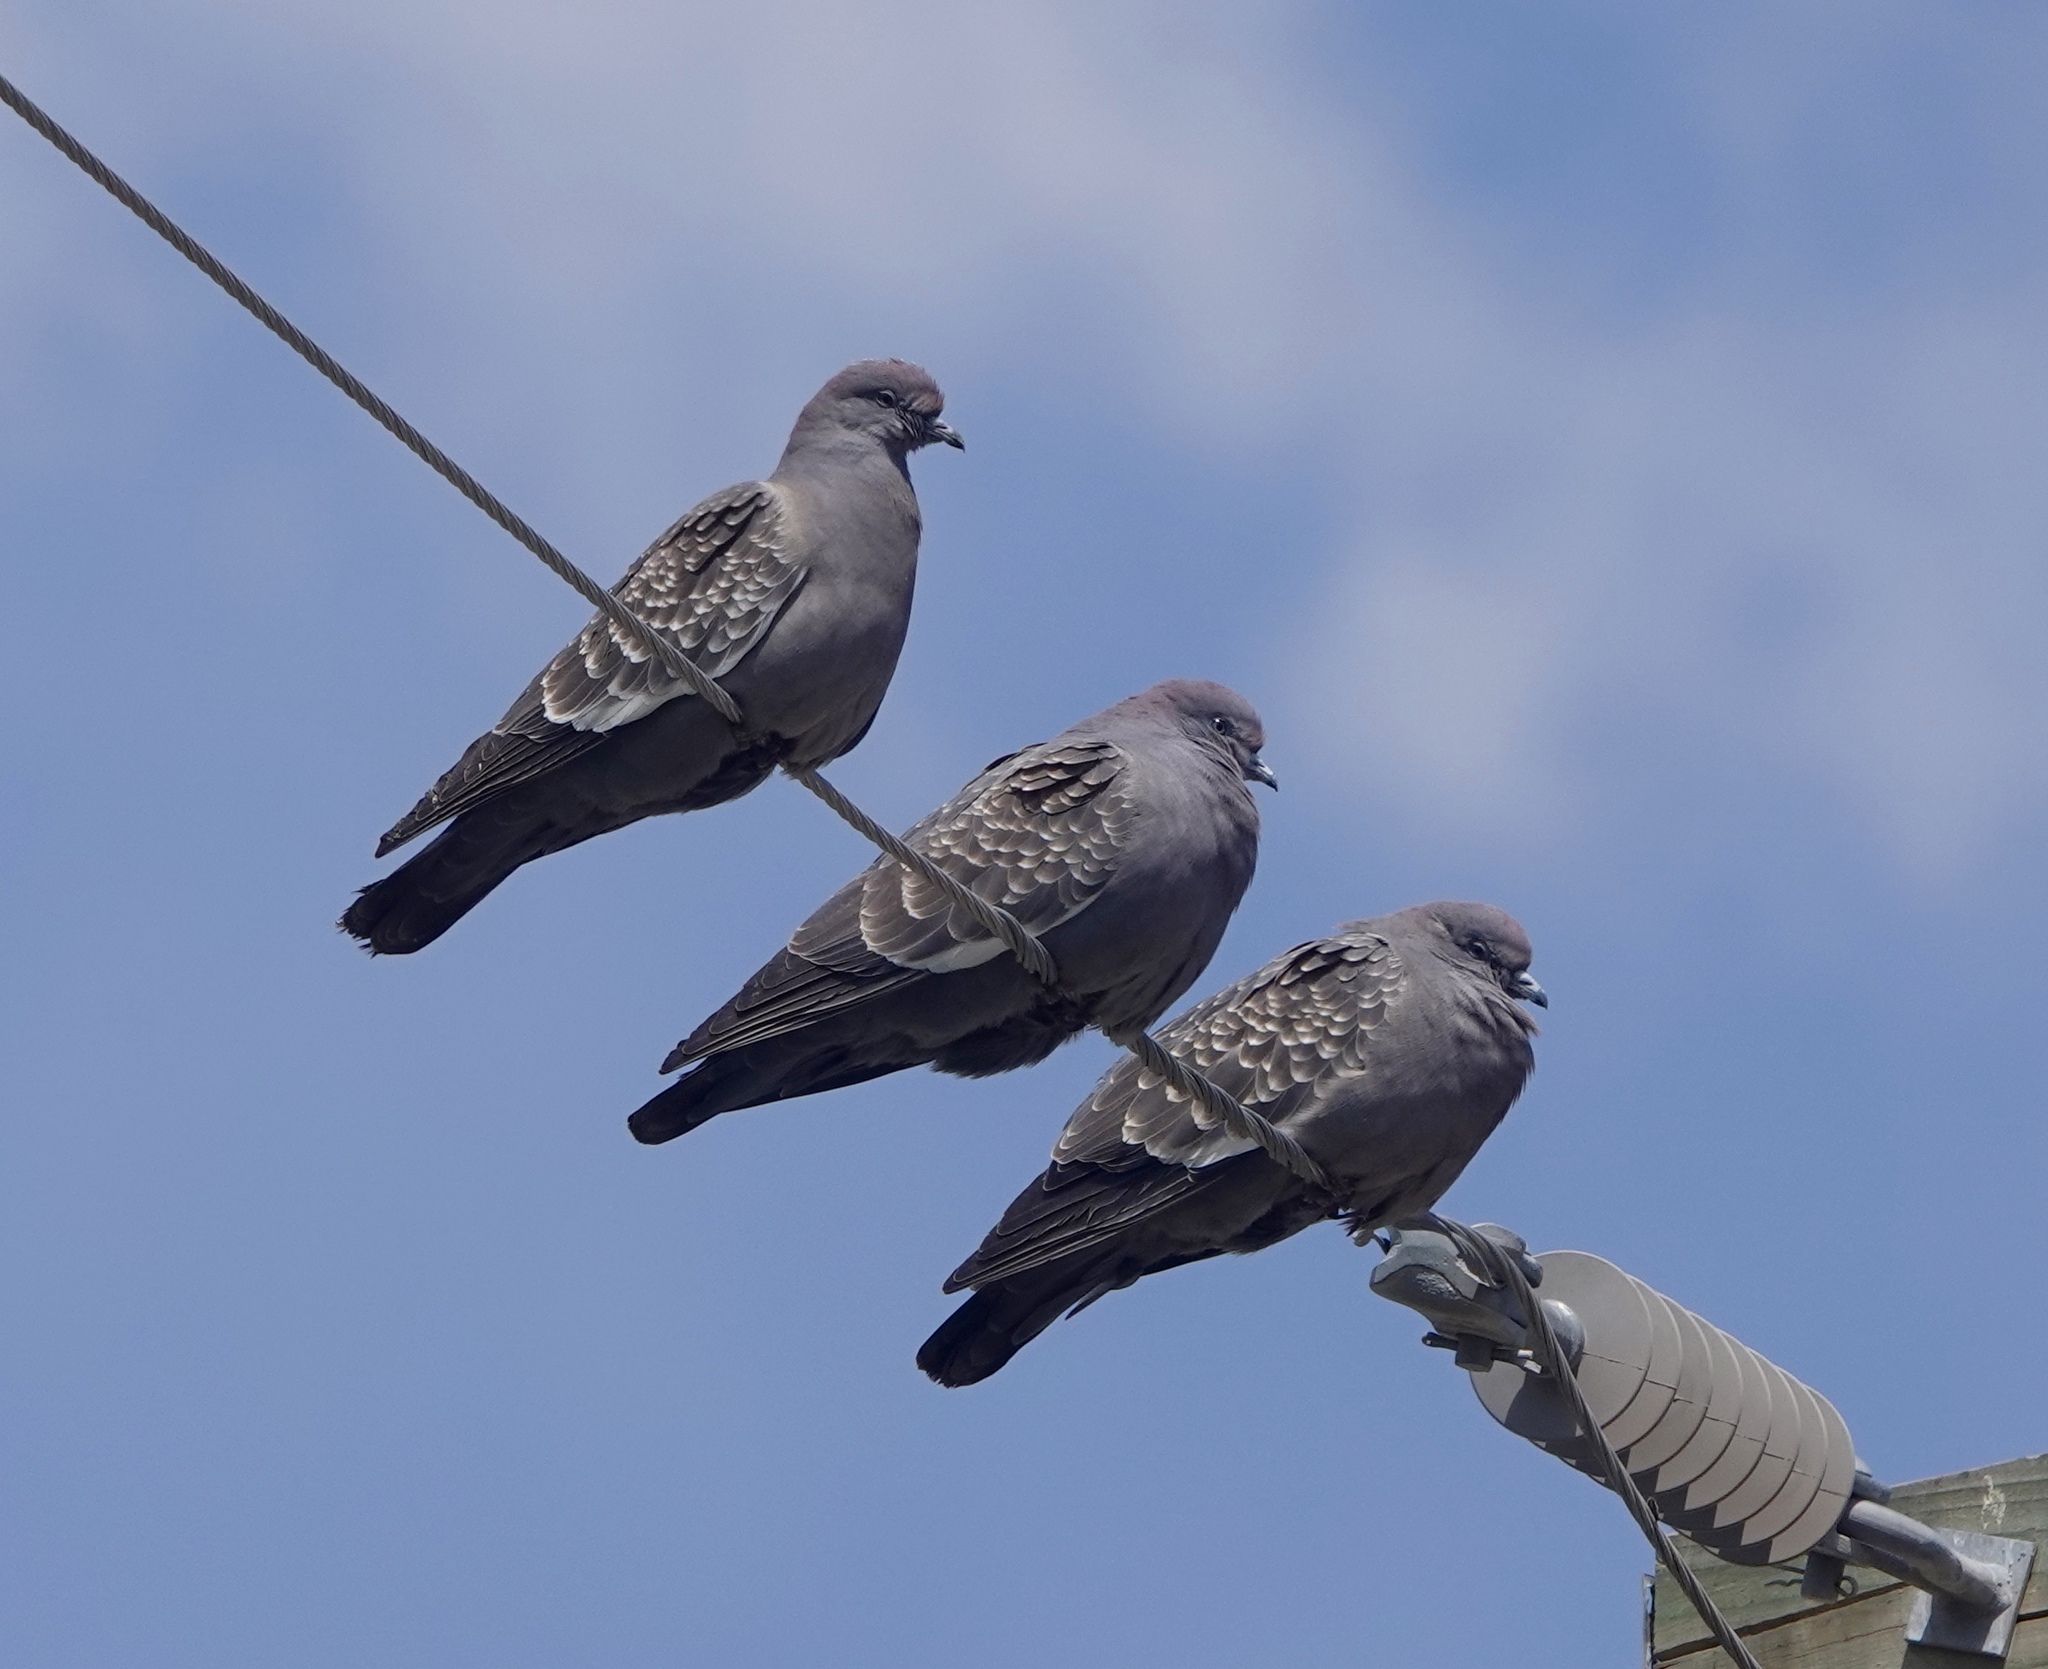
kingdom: Animalia
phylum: Chordata
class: Aves
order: Columbiformes
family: Columbidae
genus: Patagioenas
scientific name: Patagioenas maculosa
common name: Spot-winged pigeon
